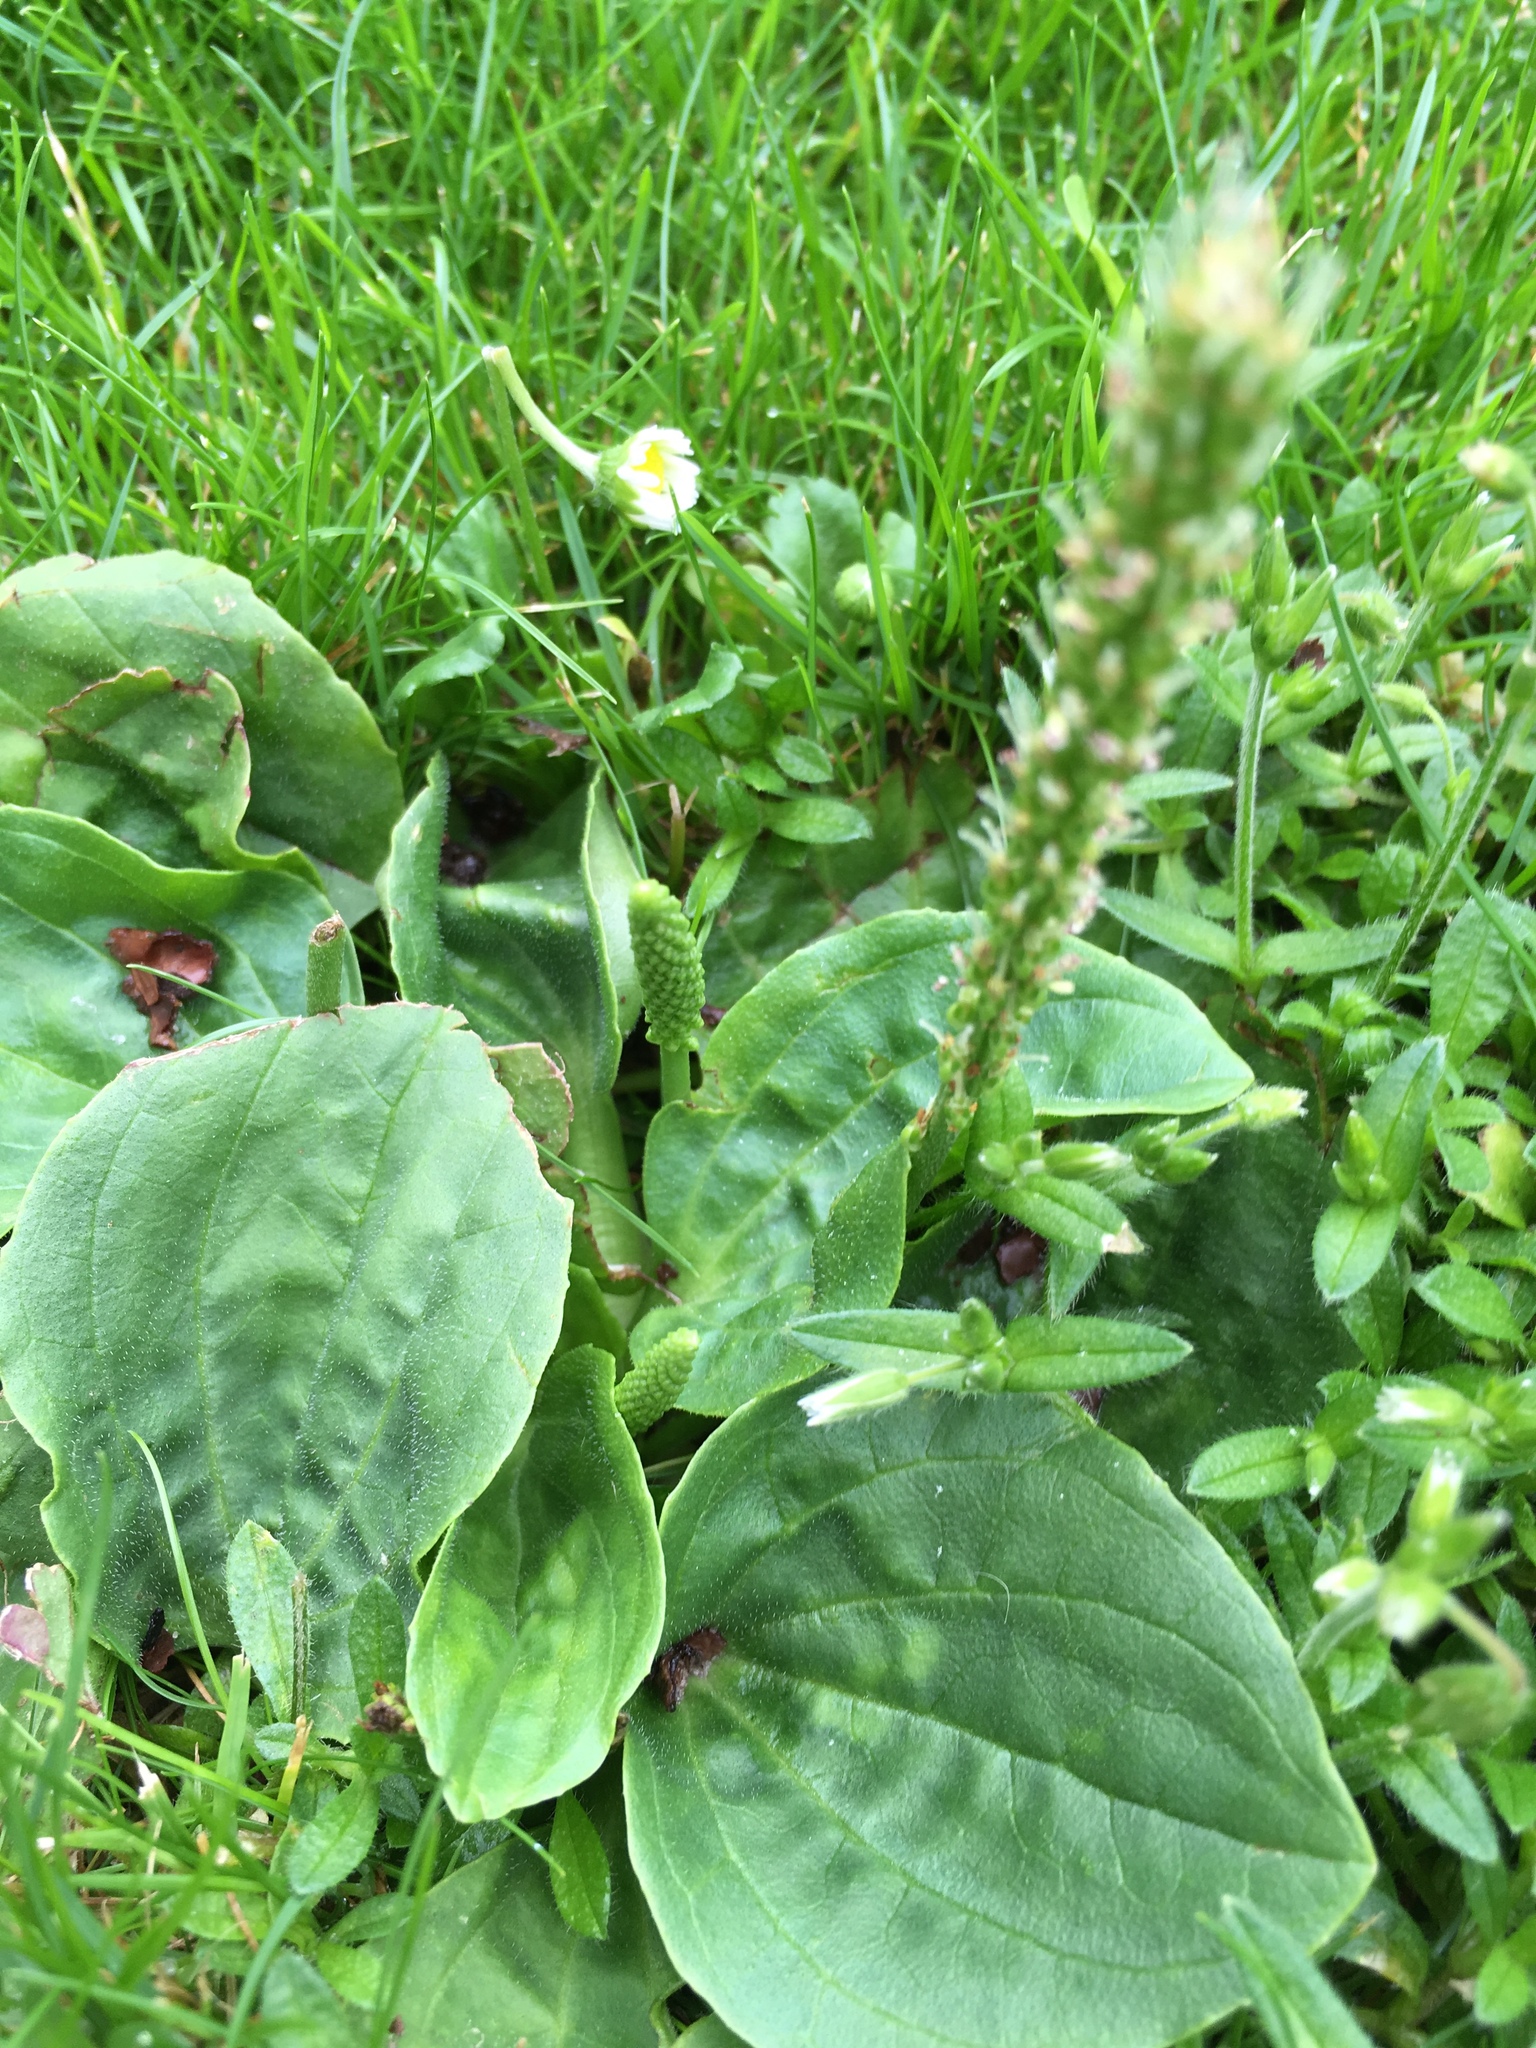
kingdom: Plantae
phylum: Tracheophyta
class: Magnoliopsida
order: Lamiales
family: Plantaginaceae
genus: Plantago
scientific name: Plantago major
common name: Common plantain
